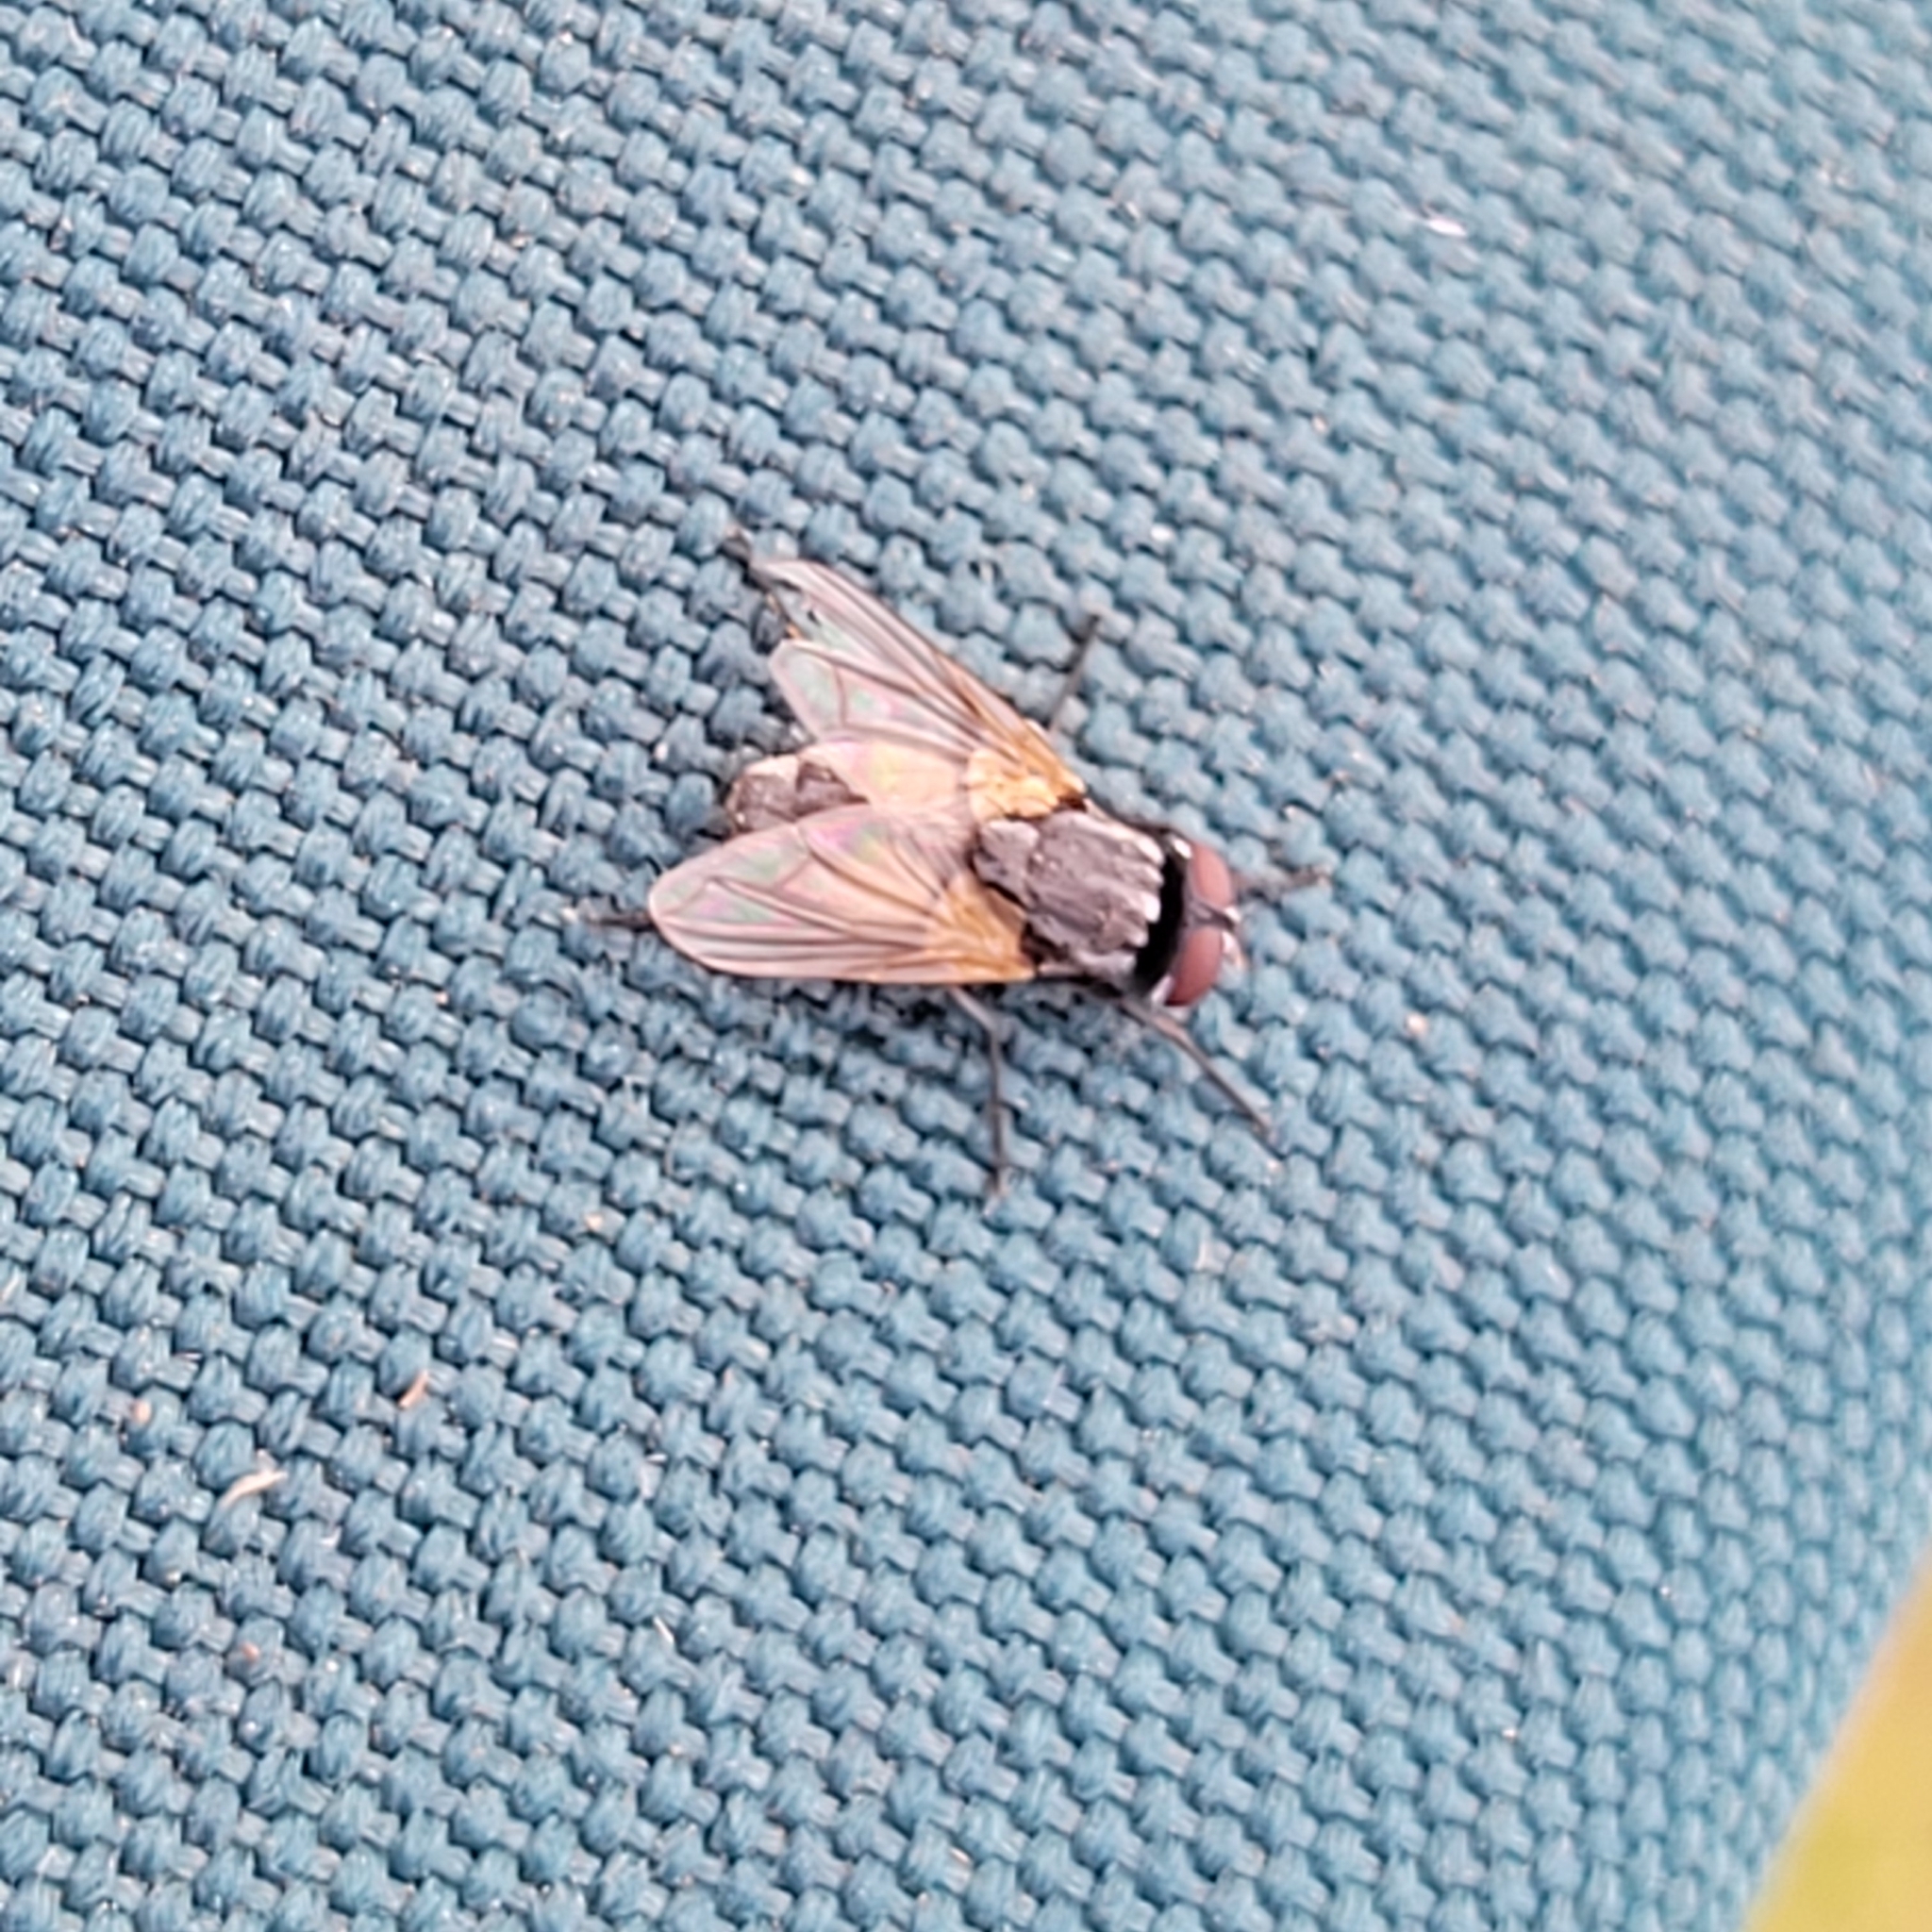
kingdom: Animalia
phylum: Arthropoda
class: Insecta
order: Diptera
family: Muscidae
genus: Musca
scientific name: Musca domestica
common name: House fly
